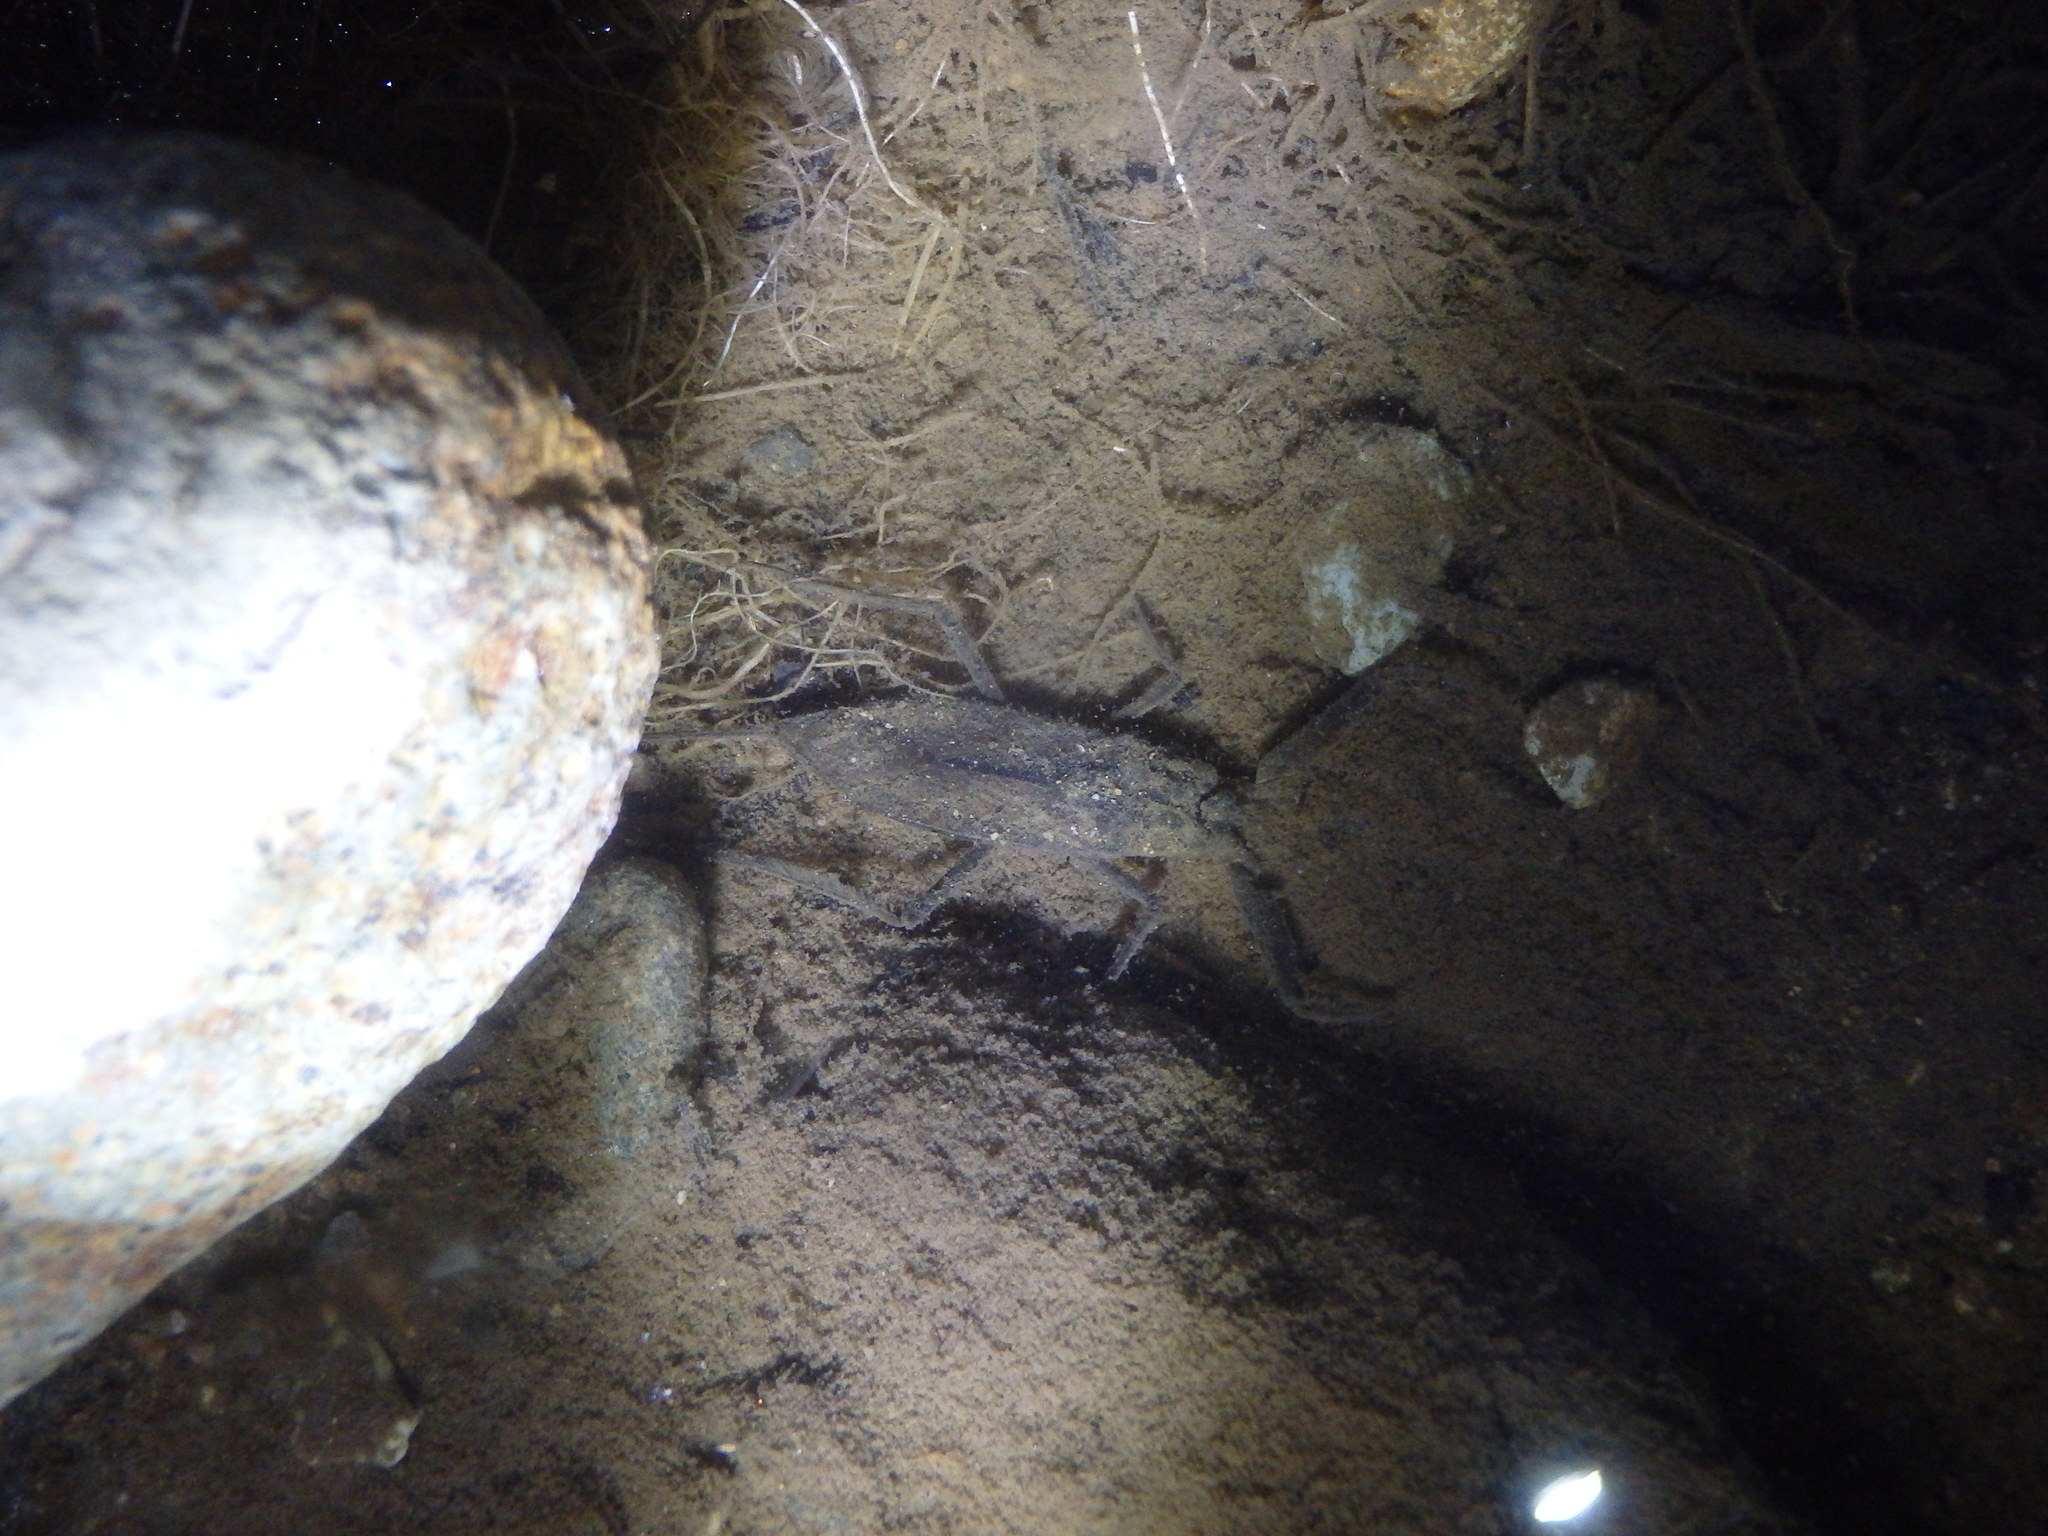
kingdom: Animalia
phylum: Arthropoda
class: Insecta
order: Hemiptera
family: Nepidae
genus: Laccotrephes
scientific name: Laccotrephes japonensis
